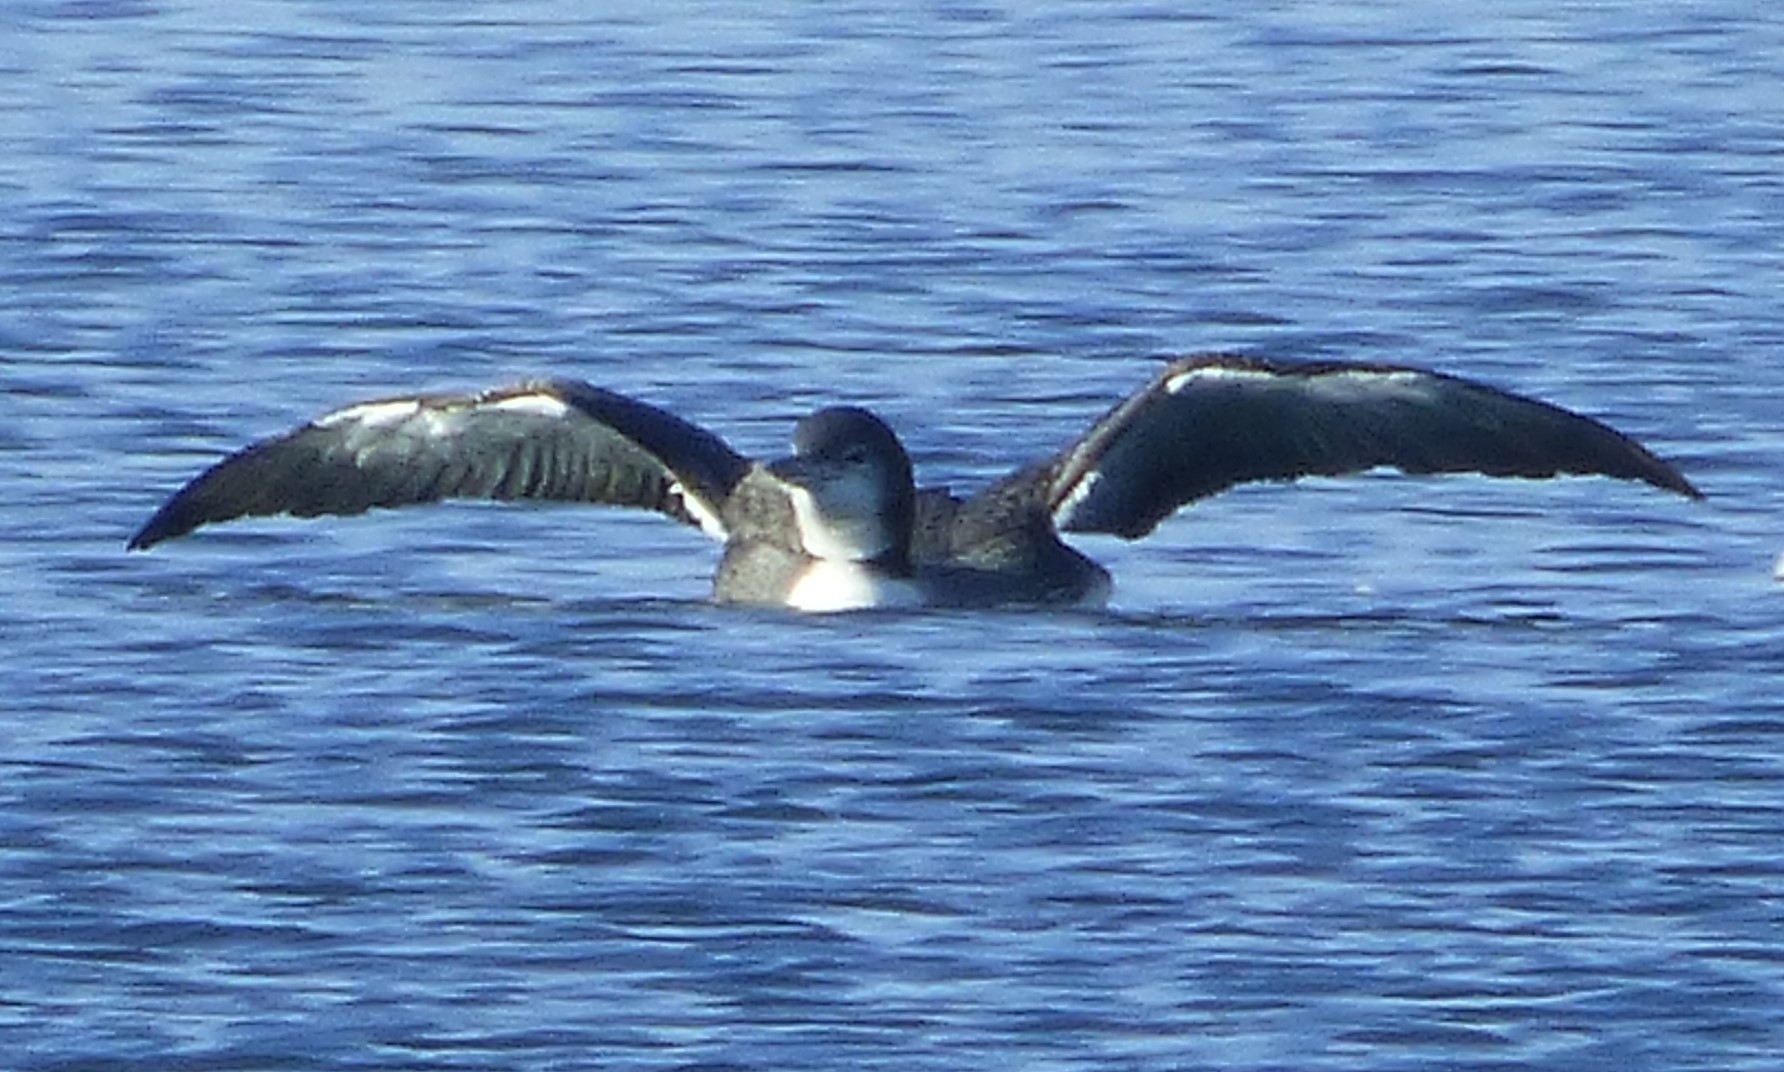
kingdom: Animalia
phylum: Chordata
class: Aves
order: Gaviiformes
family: Gaviidae
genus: Gavia
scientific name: Gavia immer
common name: Common loon
